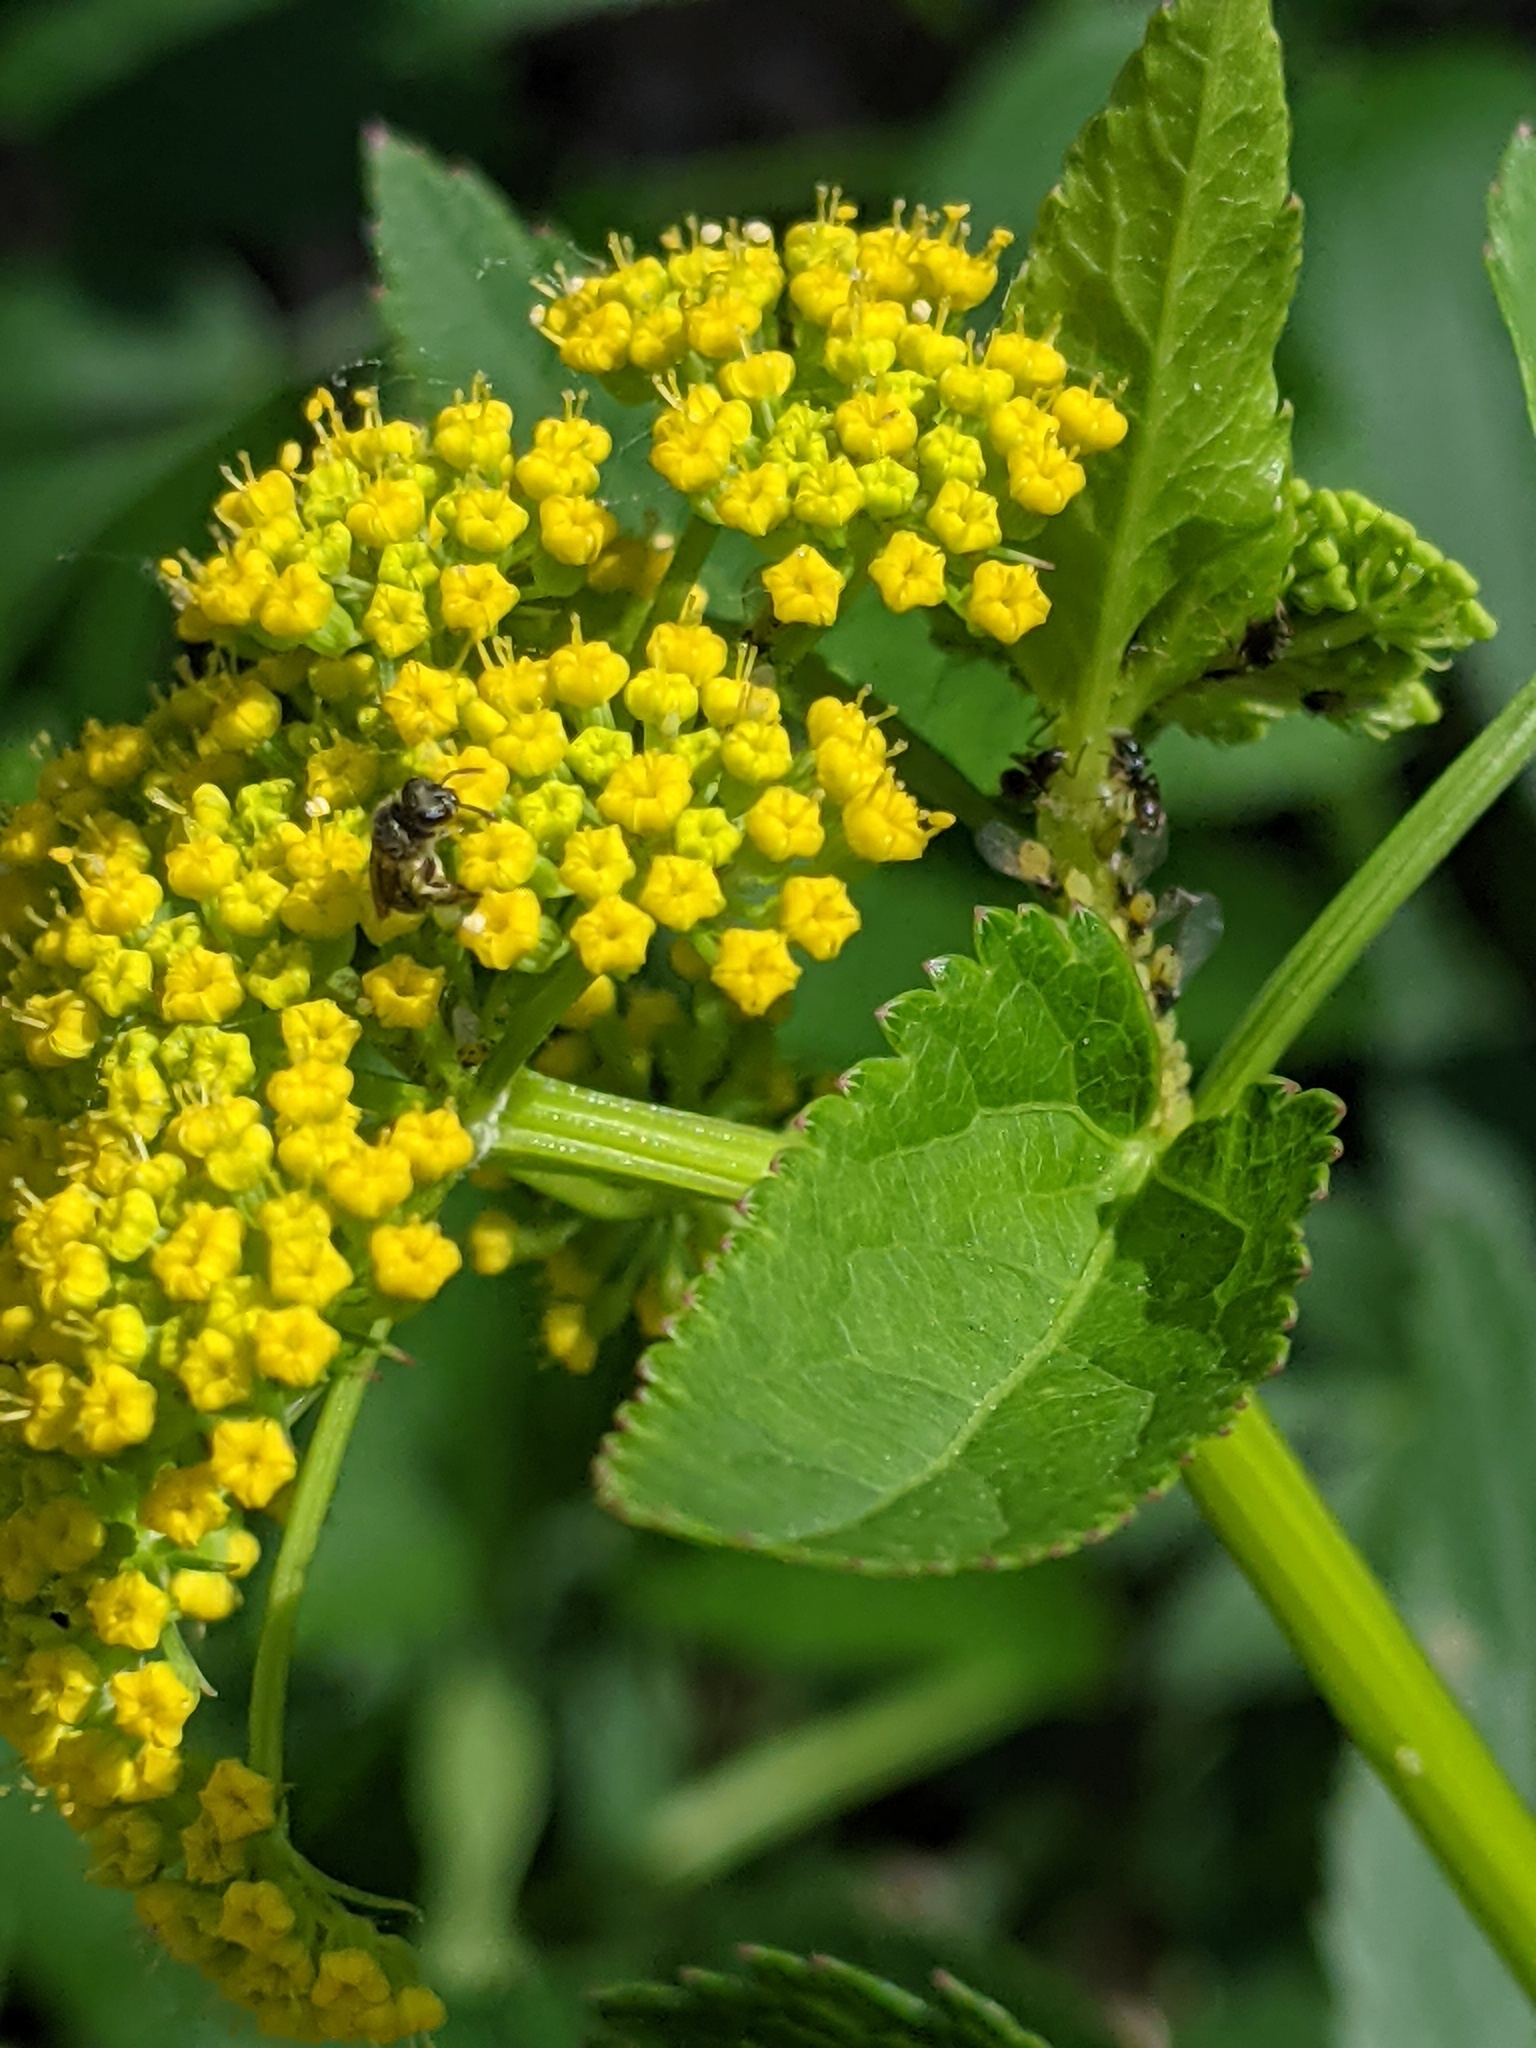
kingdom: Animalia
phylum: Arthropoda
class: Insecta
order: Hymenoptera
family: Halictidae
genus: Lasioglossum
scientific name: Lasioglossum
